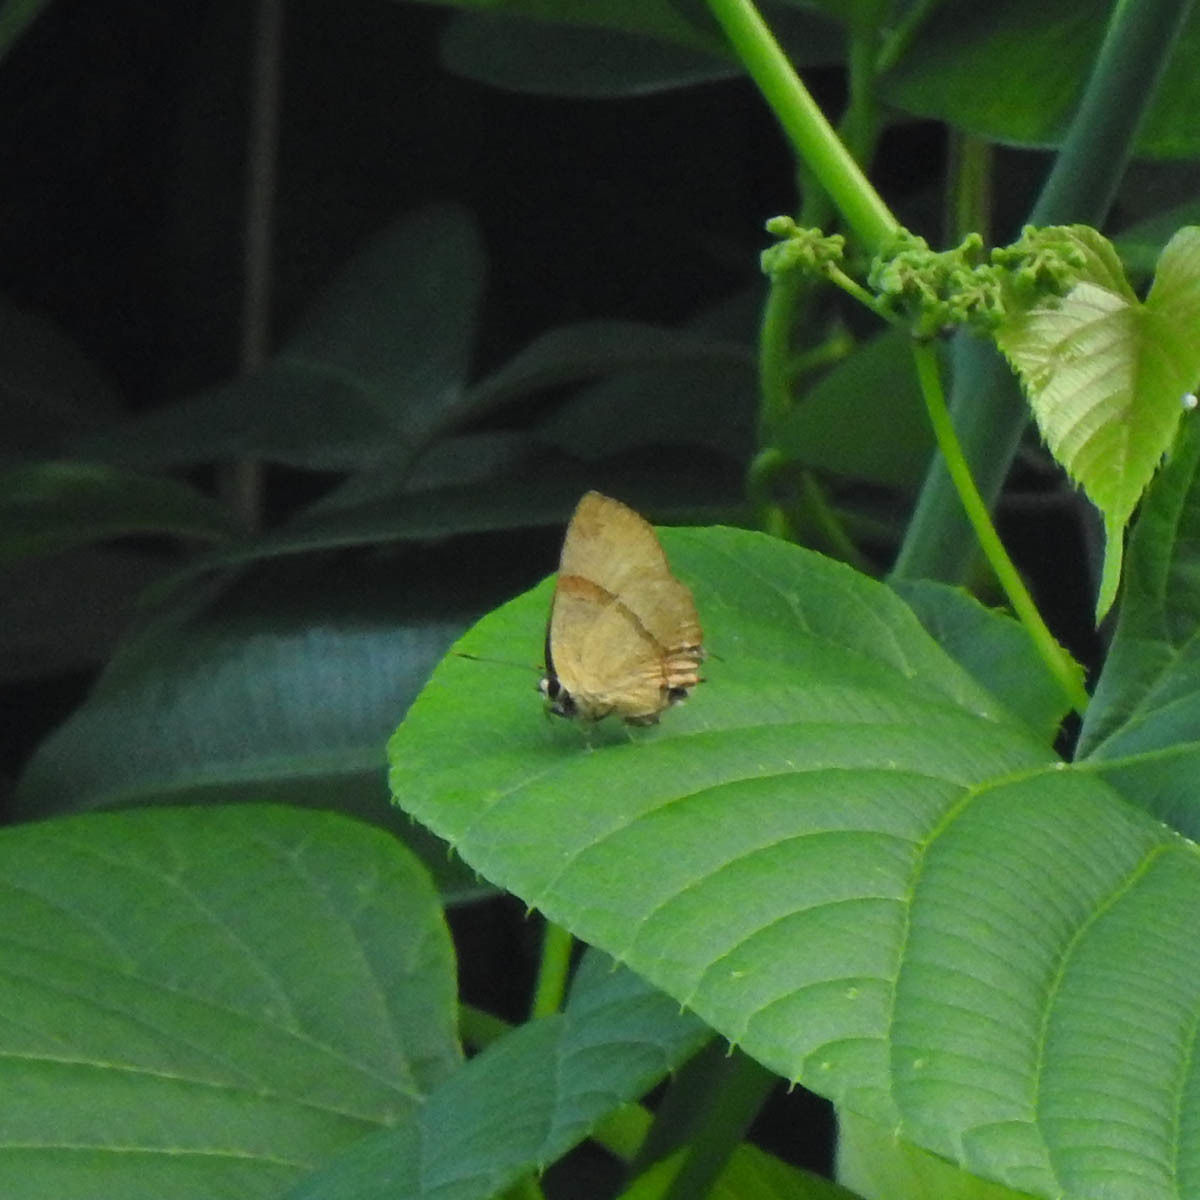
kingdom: Animalia
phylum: Arthropoda
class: Insecta
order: Lepidoptera
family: Lycaenidae
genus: Rapala
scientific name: Rapala lankana
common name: Malabar flash
